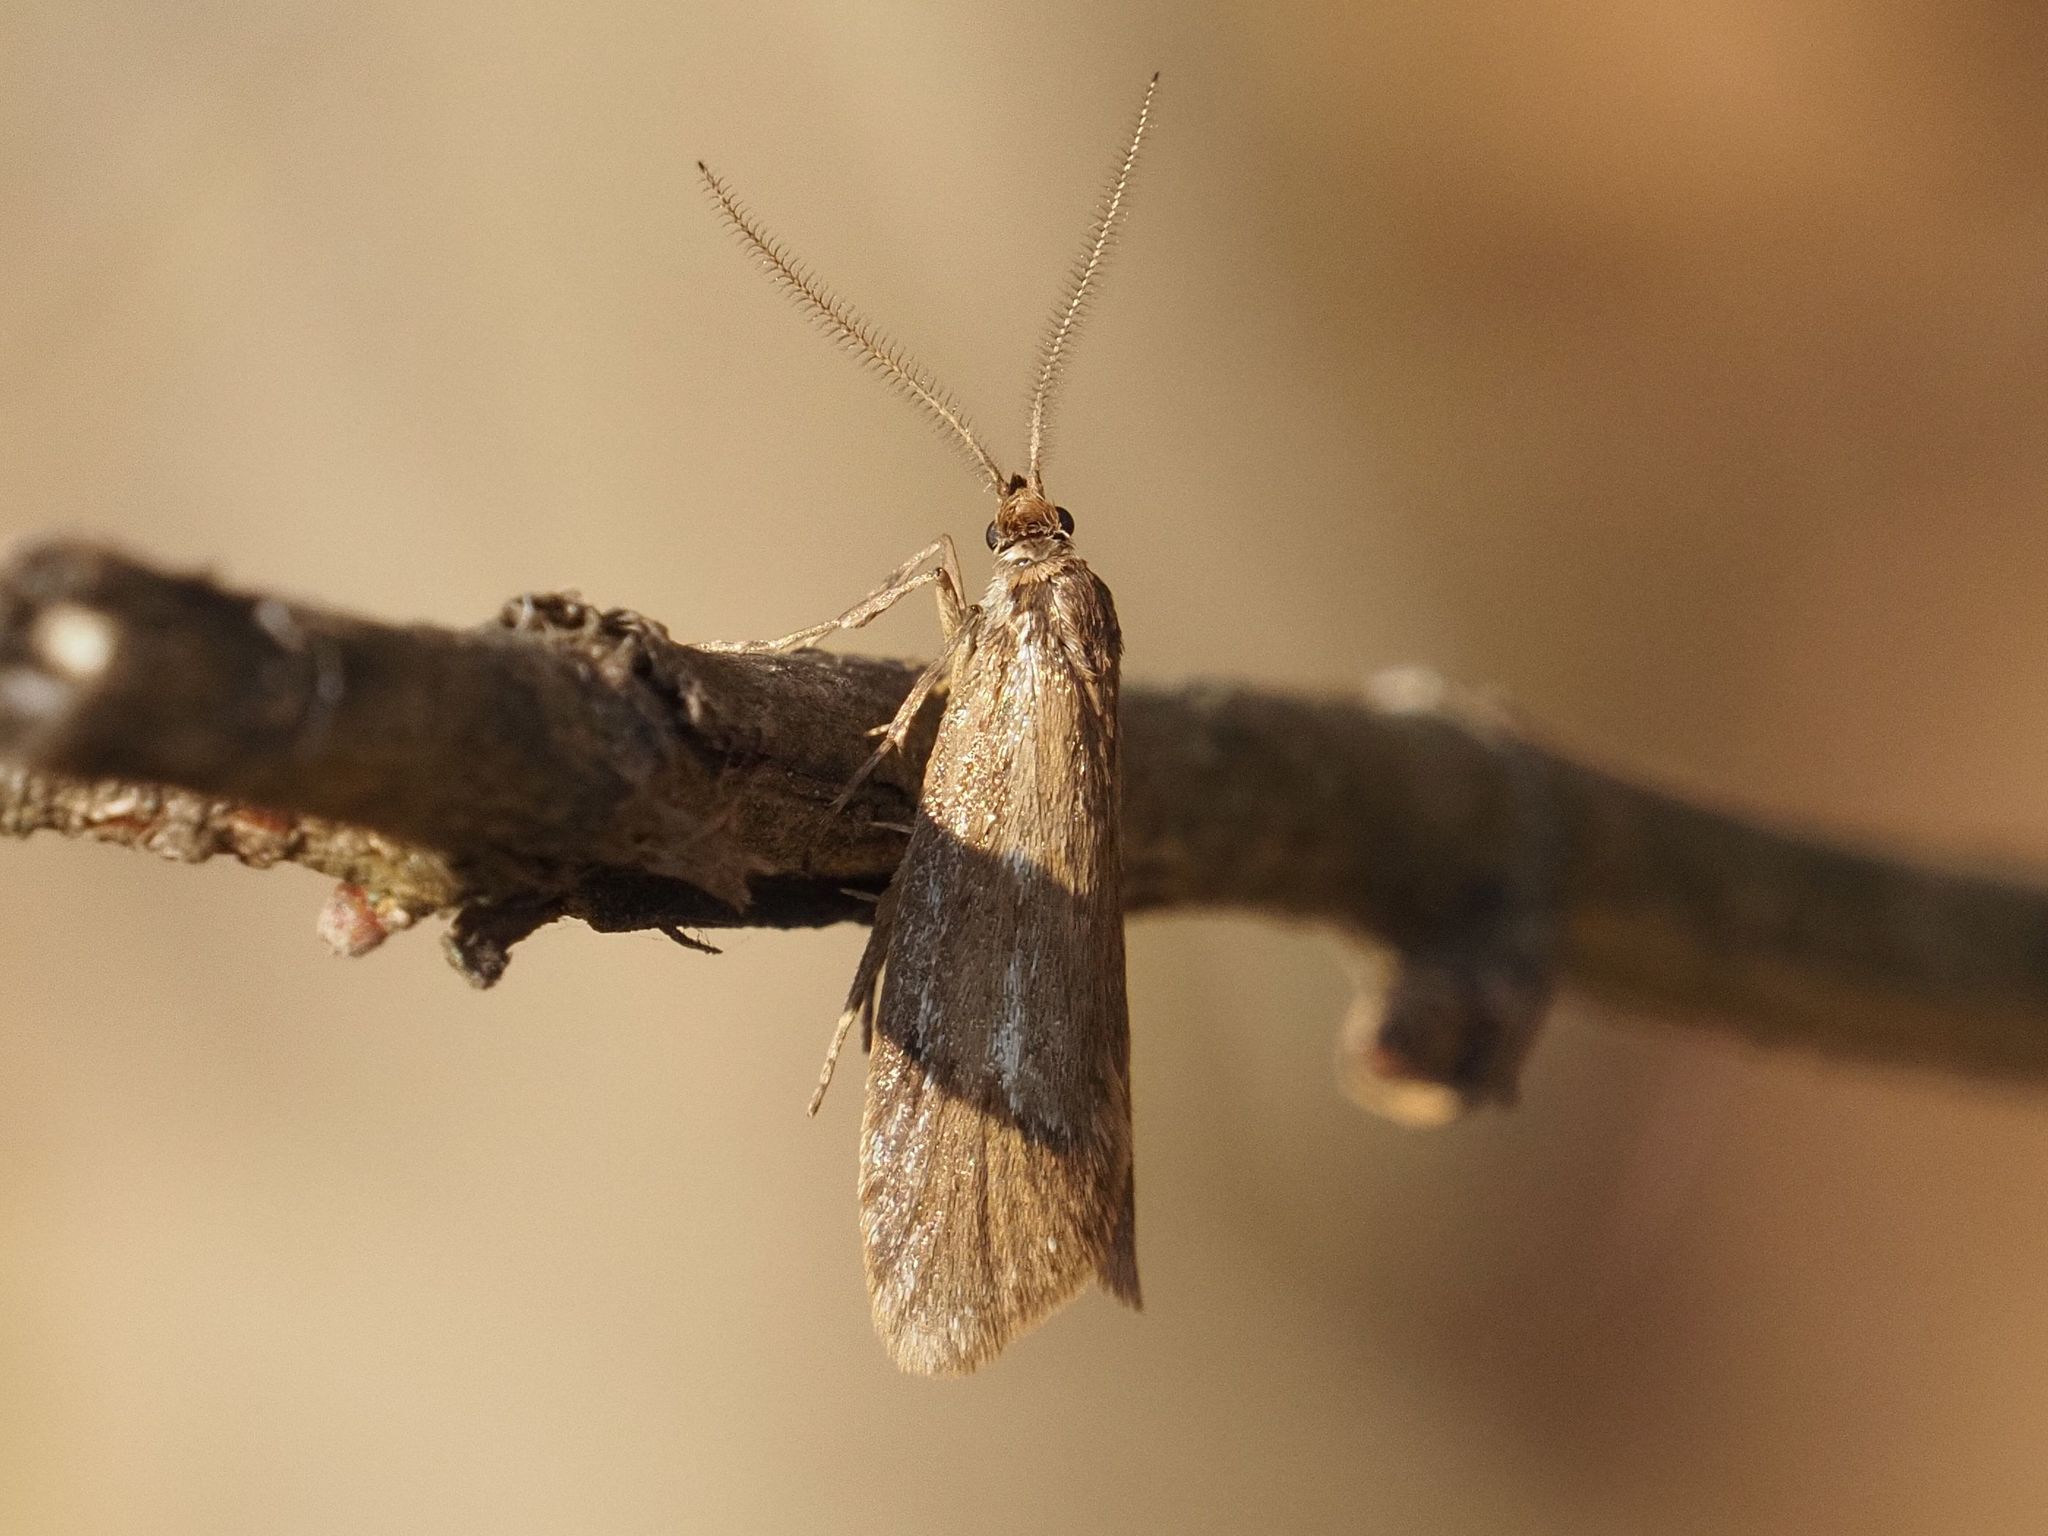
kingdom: Animalia
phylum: Arthropoda
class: Insecta
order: Lepidoptera
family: Lypusidae
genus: Diurnea
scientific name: Diurnea lipsiella
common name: November tubic
